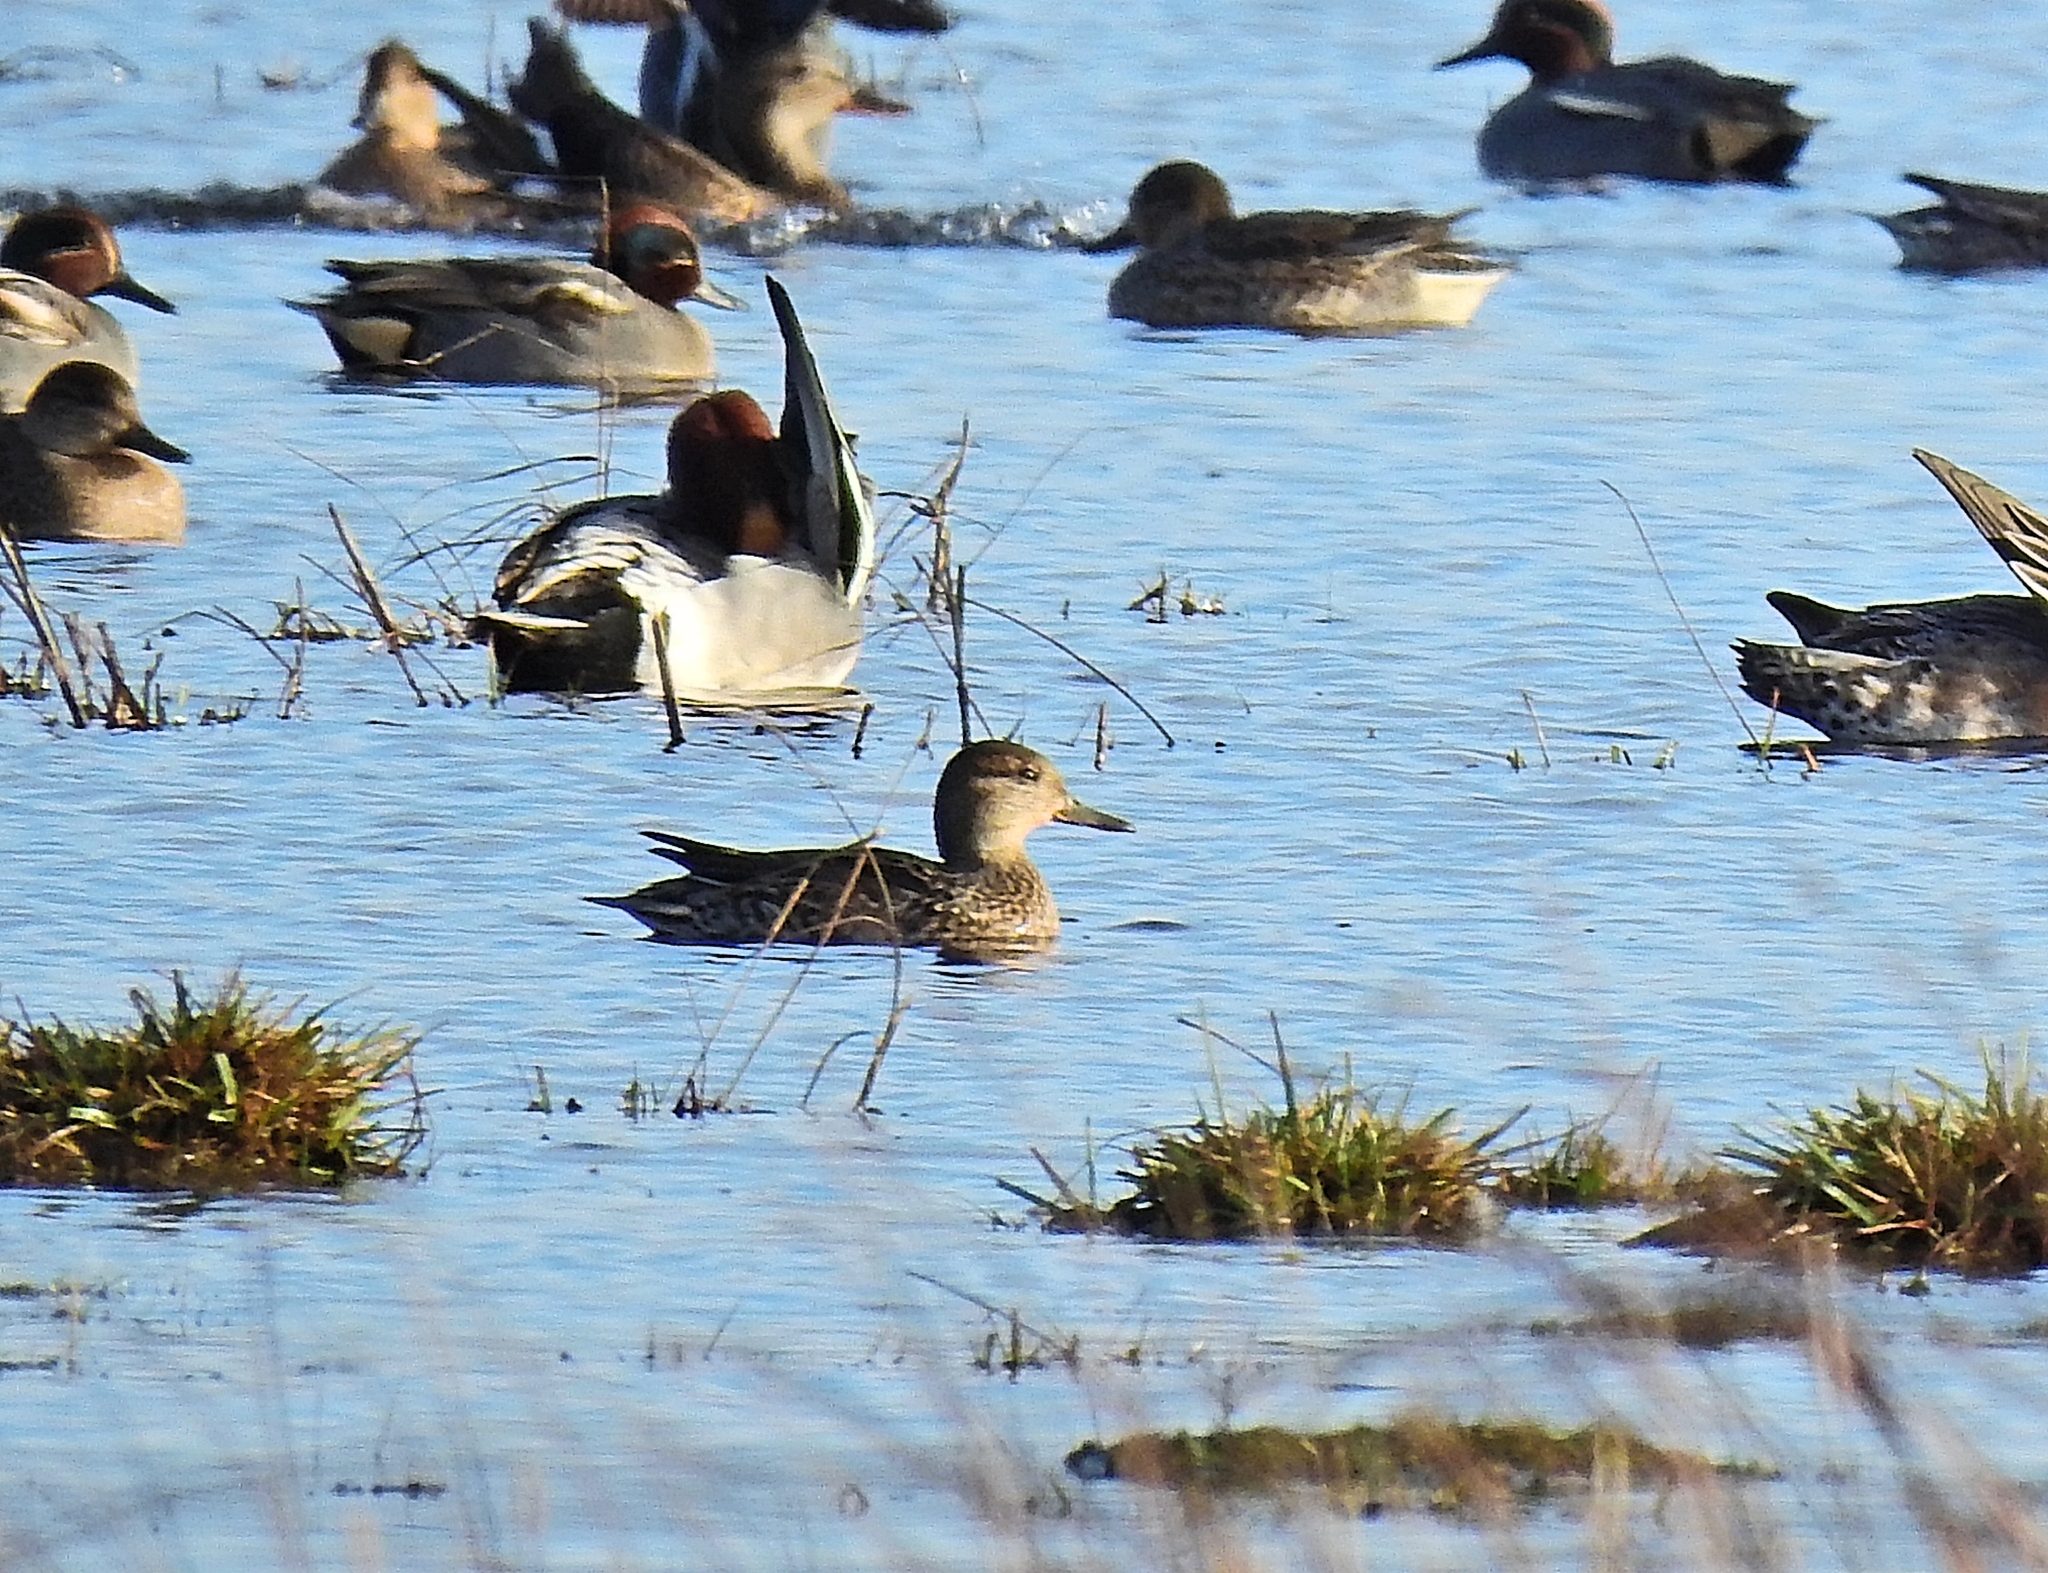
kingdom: Animalia
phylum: Chordata
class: Aves
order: Anseriformes
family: Anatidae
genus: Anas
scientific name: Anas crecca
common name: Eurasian teal
